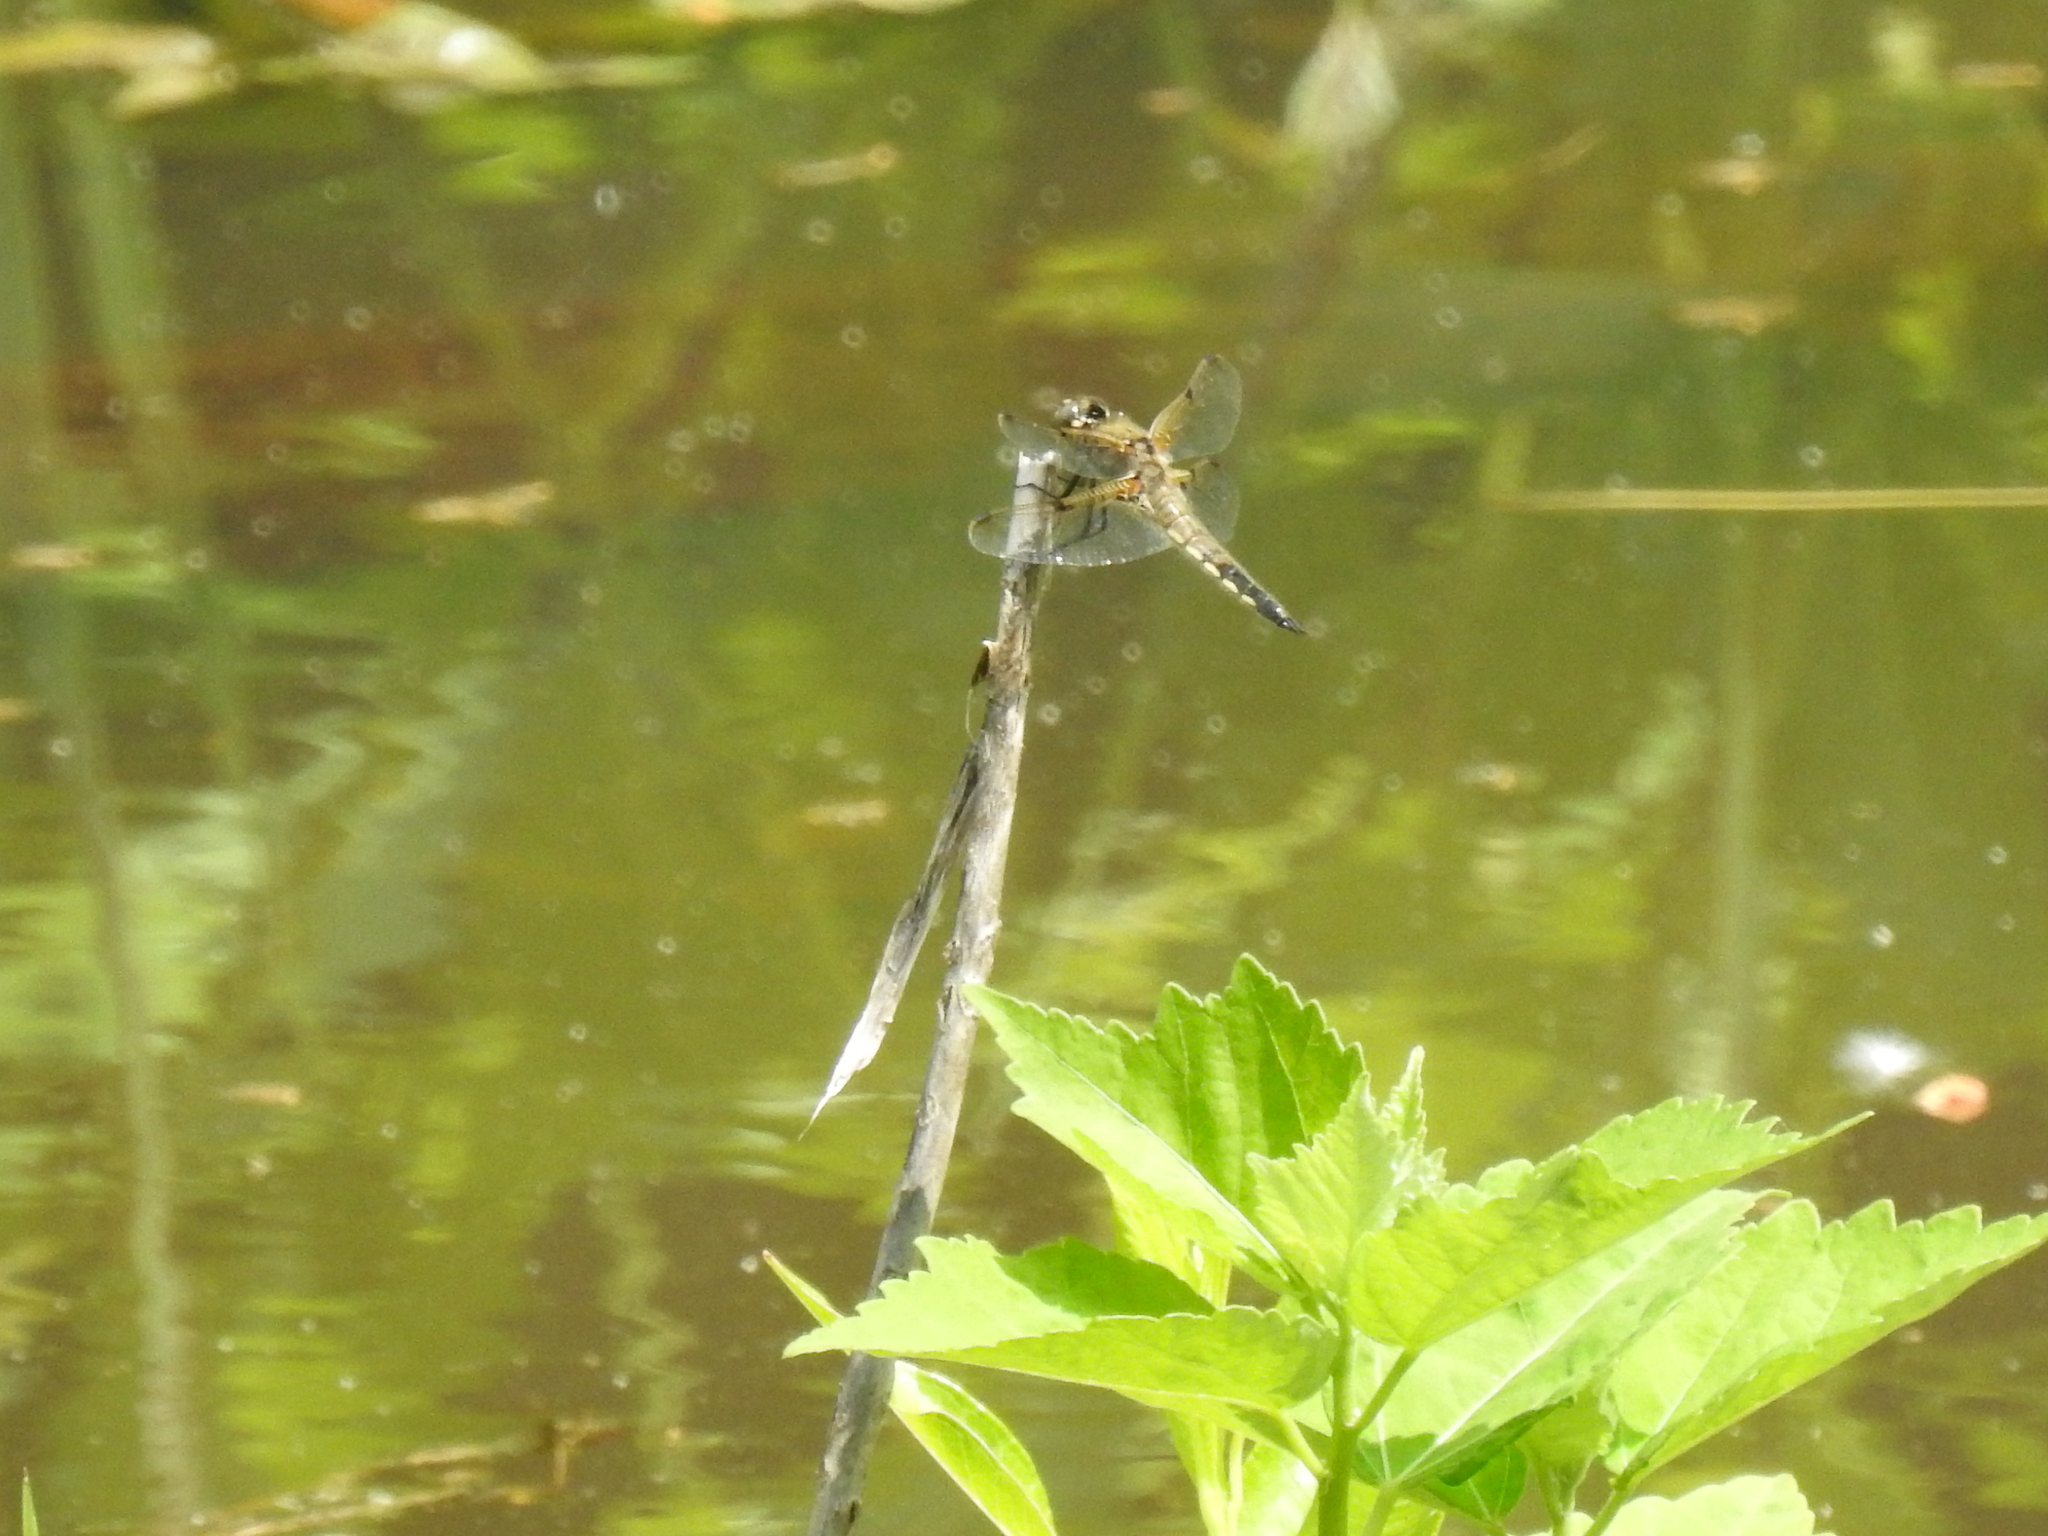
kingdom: Animalia
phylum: Arthropoda
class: Insecta
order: Odonata
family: Libellulidae
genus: Libellula
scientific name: Libellula quadrimaculata
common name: Four-spotted chaser
